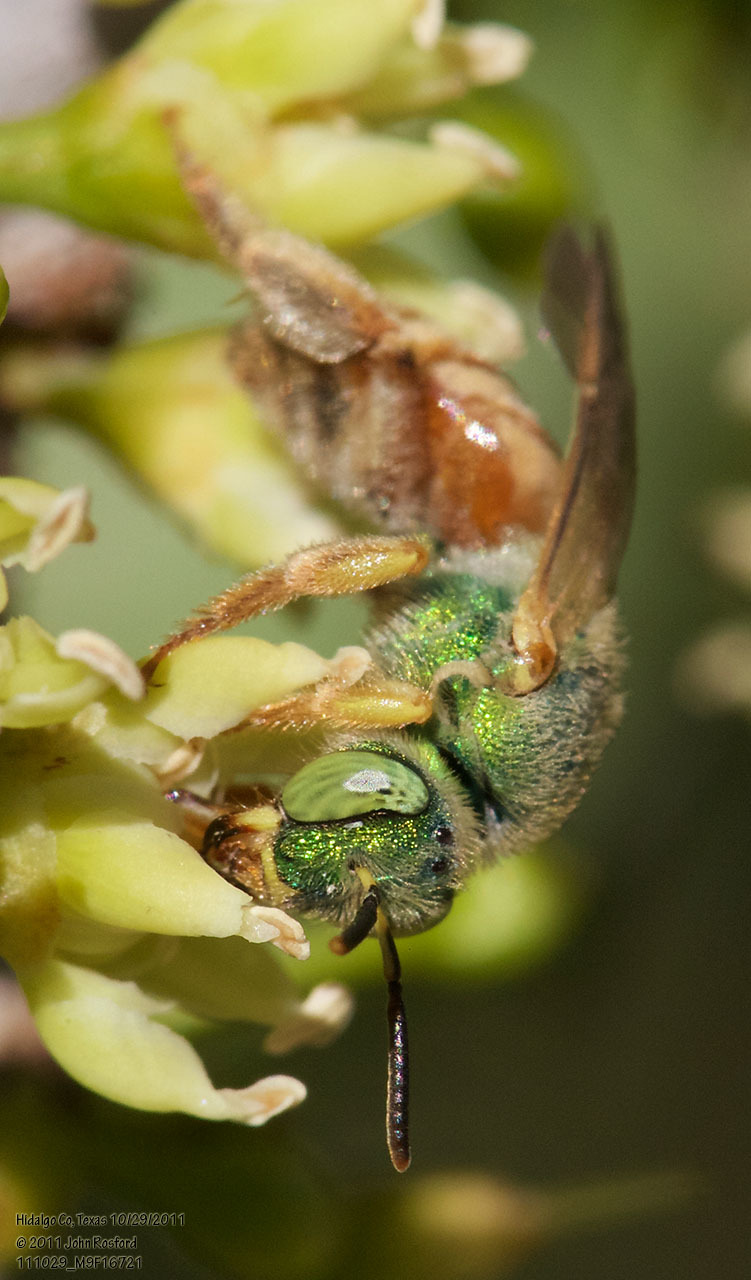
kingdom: Animalia
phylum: Arthropoda
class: Insecta
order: Hymenoptera
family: Halictidae
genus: Agapostemon
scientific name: Agapostemon melliventris
